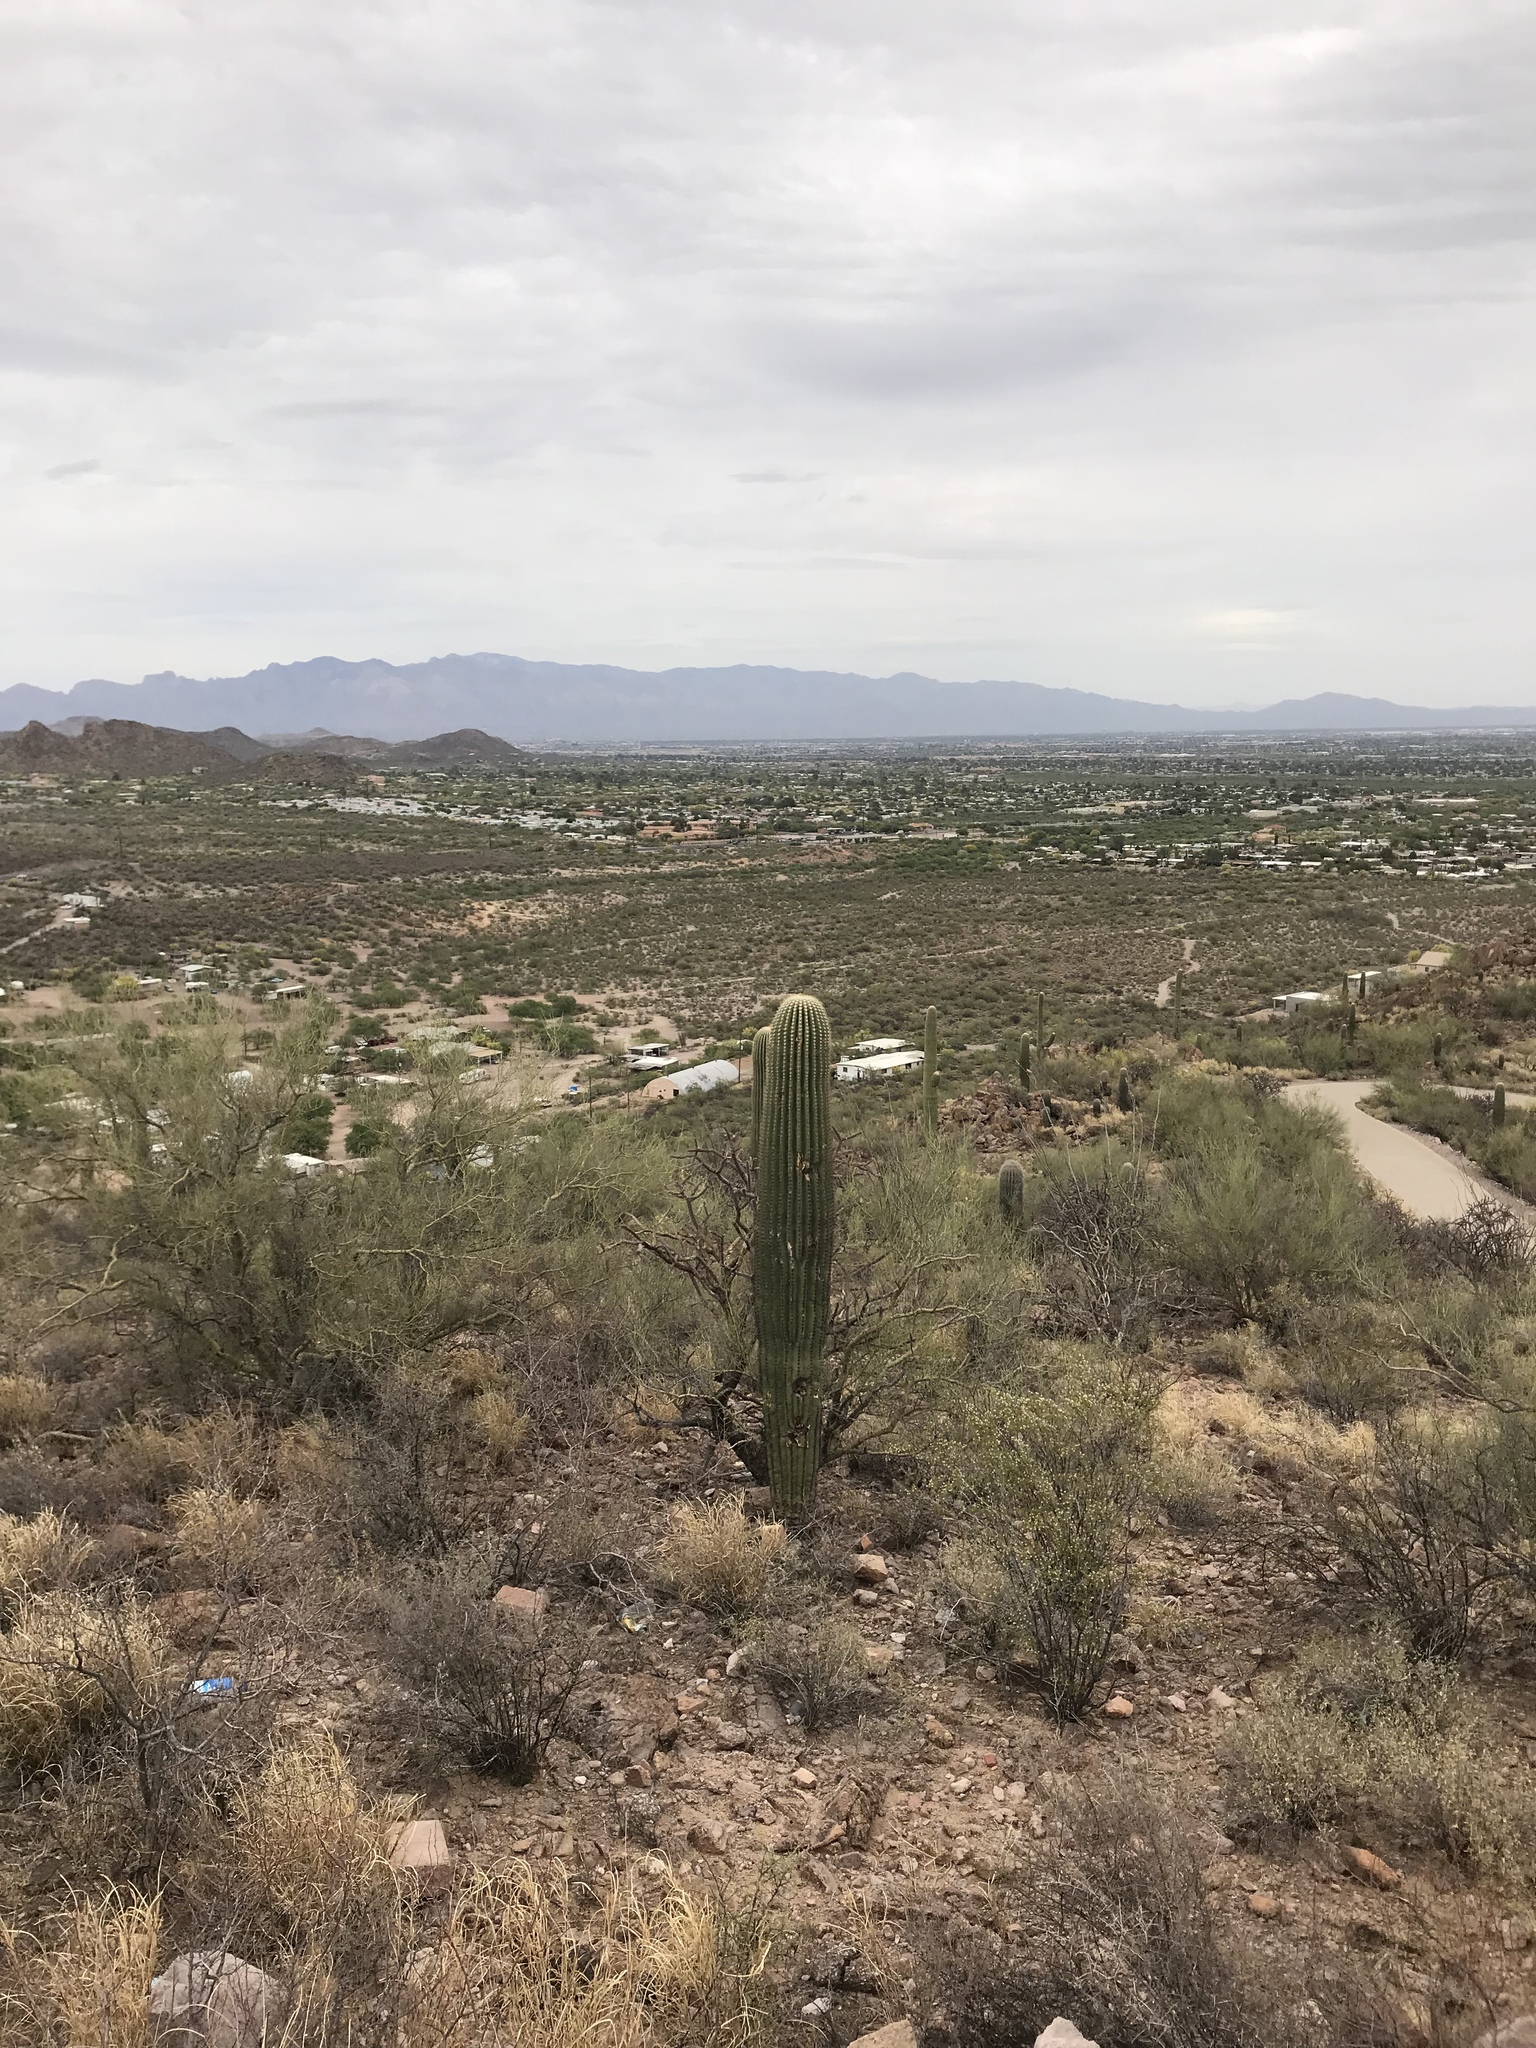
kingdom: Plantae
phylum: Tracheophyta
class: Magnoliopsida
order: Caryophyllales
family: Cactaceae
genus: Carnegiea
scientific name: Carnegiea gigantea
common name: Saguaro
